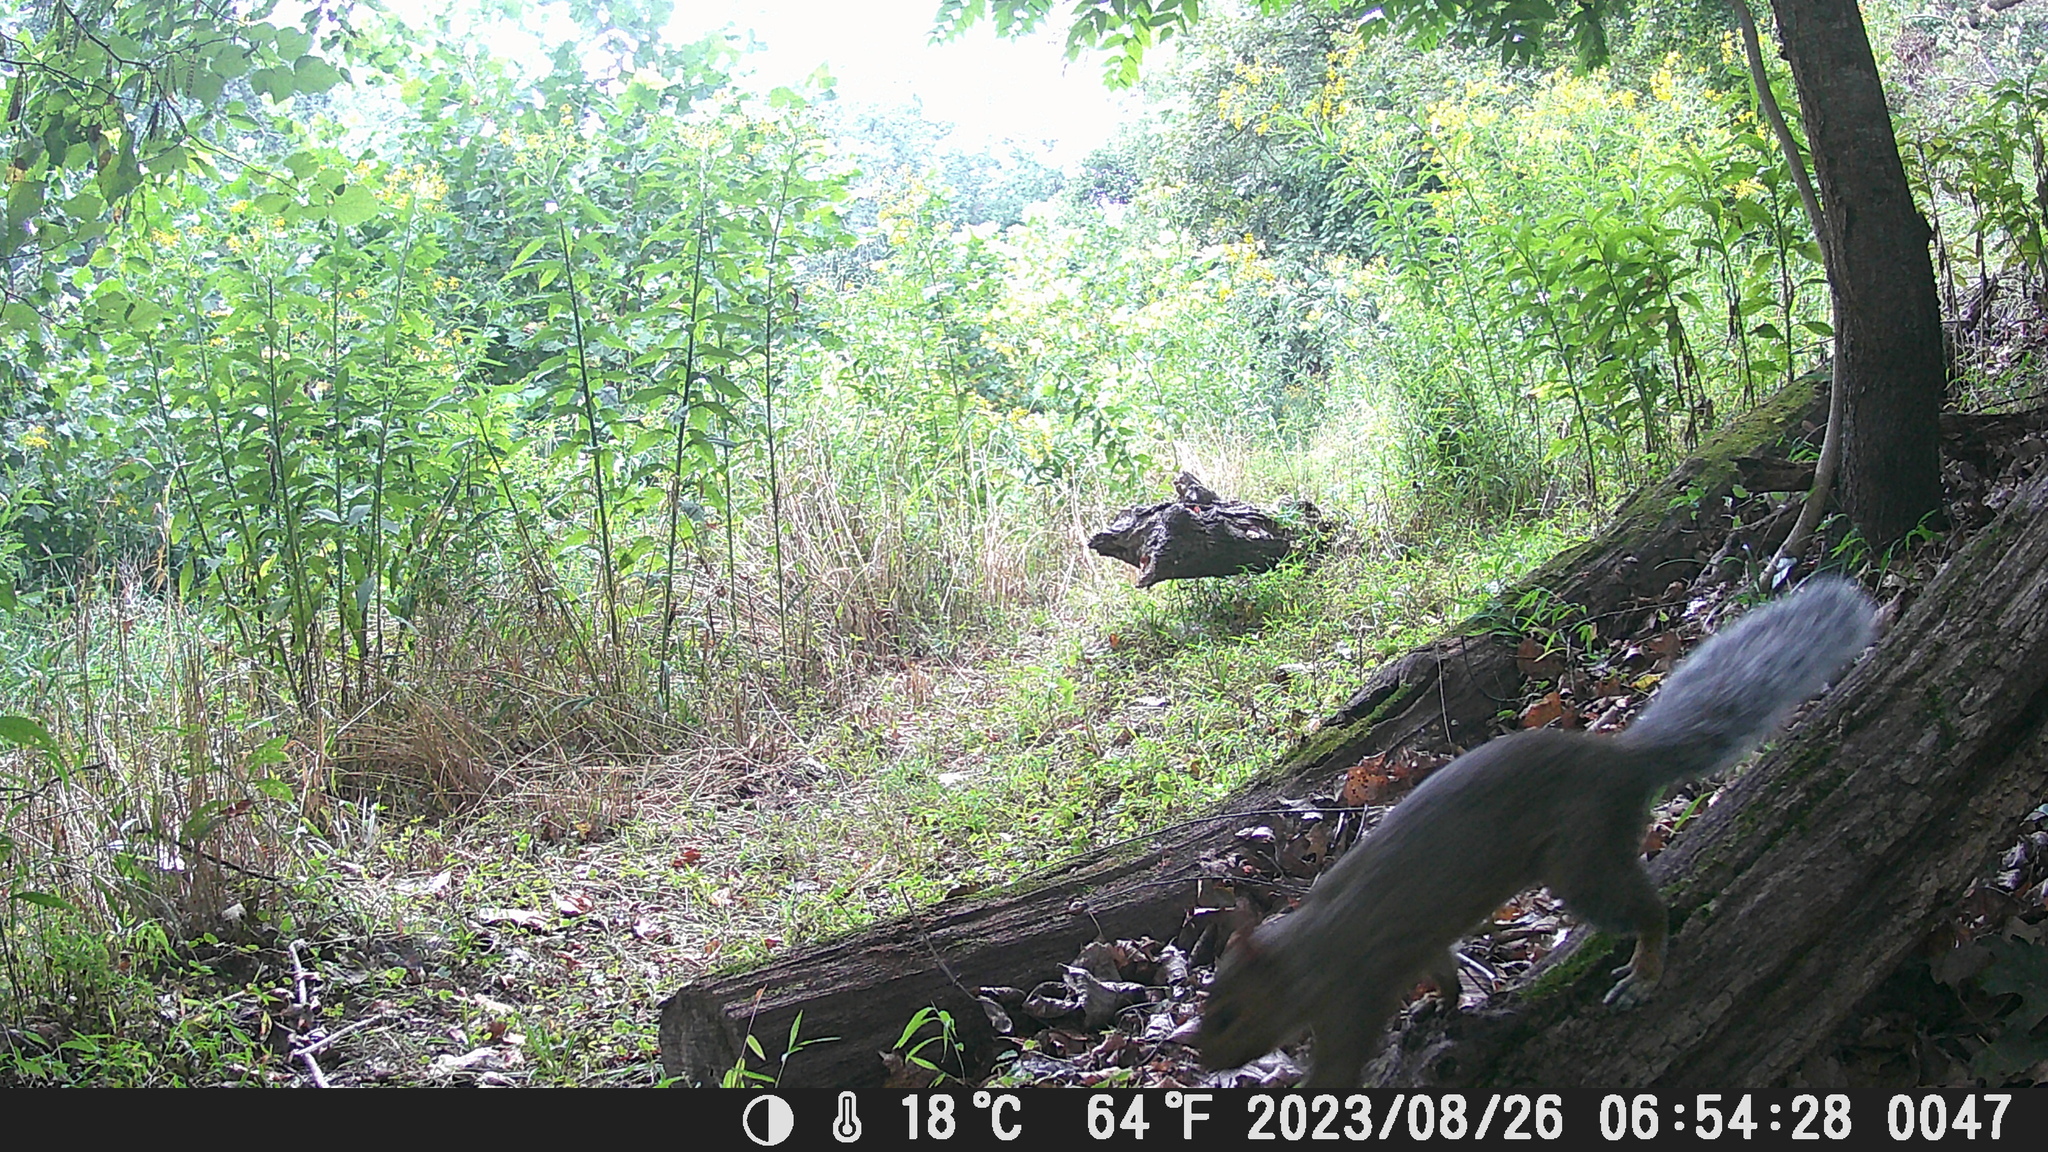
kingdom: Animalia
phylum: Chordata
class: Mammalia
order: Rodentia
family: Sciuridae
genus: Sciurus
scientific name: Sciurus carolinensis
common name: Eastern gray squirrel
